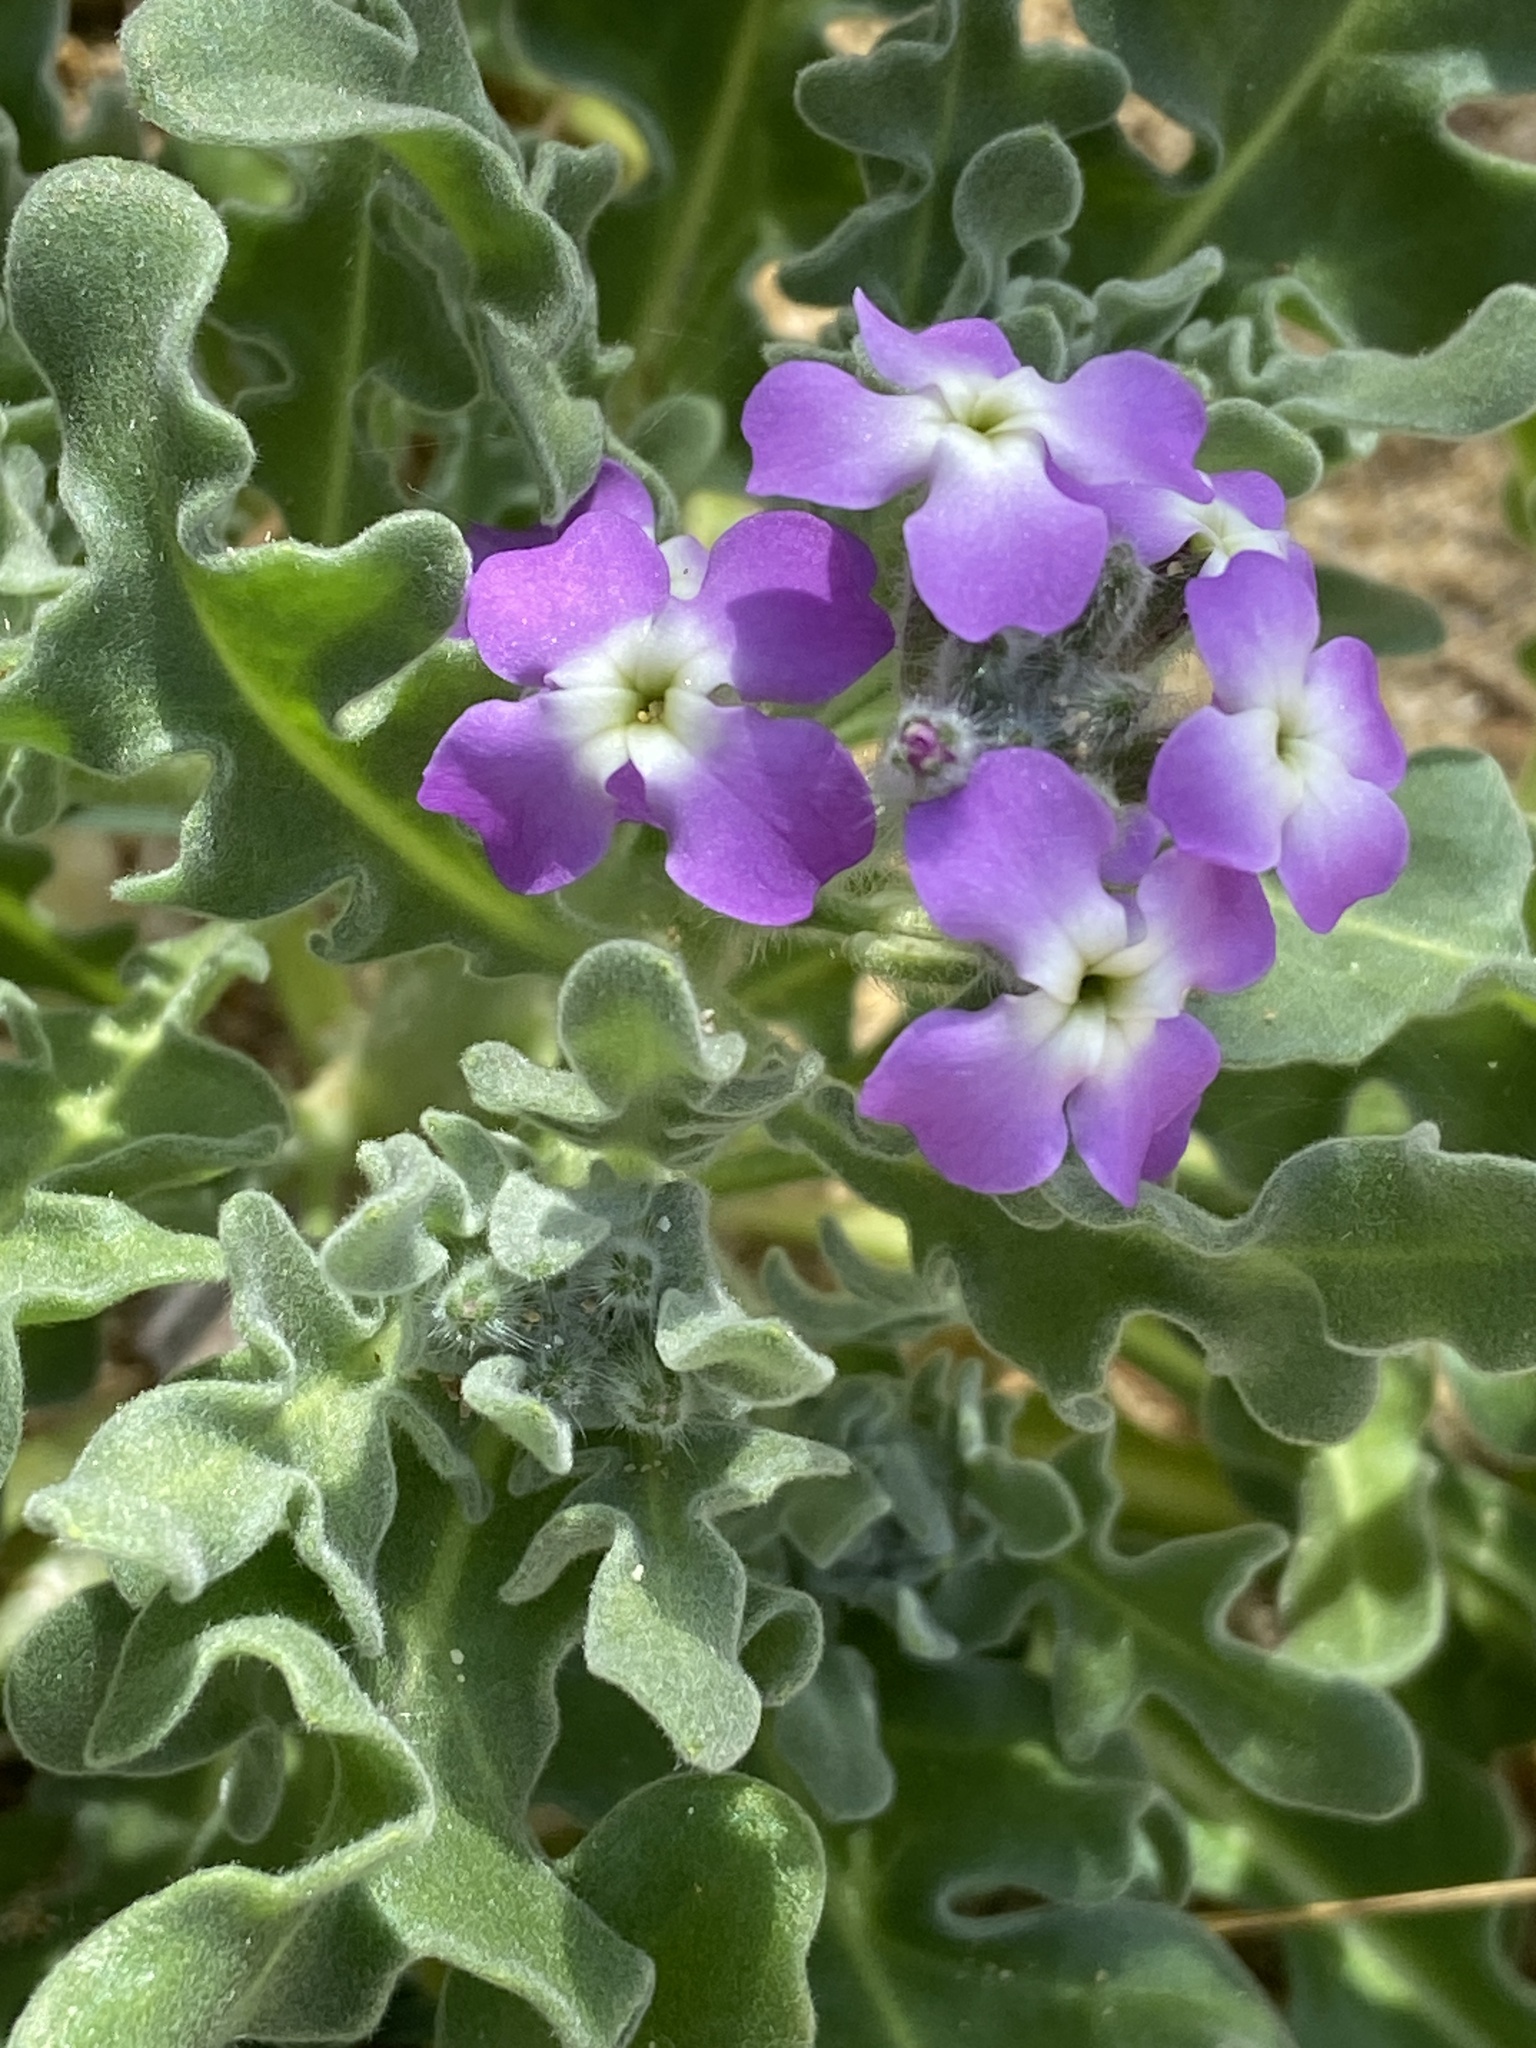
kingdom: Plantae
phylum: Tracheophyta
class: Magnoliopsida
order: Brassicales
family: Brassicaceae
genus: Matthiola
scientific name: Matthiola tricuspidata
